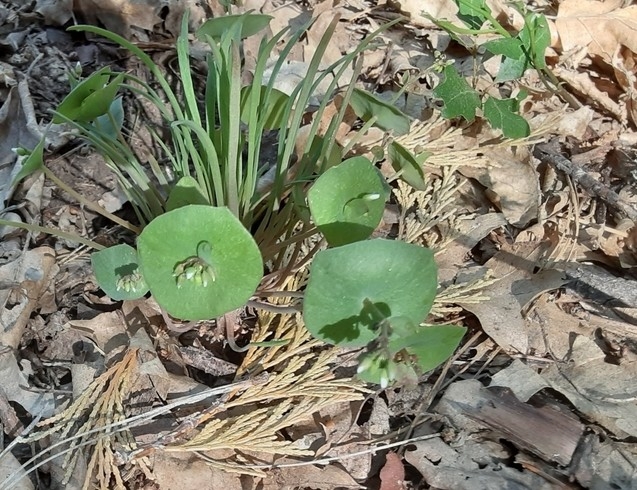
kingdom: Plantae
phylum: Tracheophyta
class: Magnoliopsida
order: Caryophyllales
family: Montiaceae
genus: Claytonia
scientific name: Claytonia perfoliata
